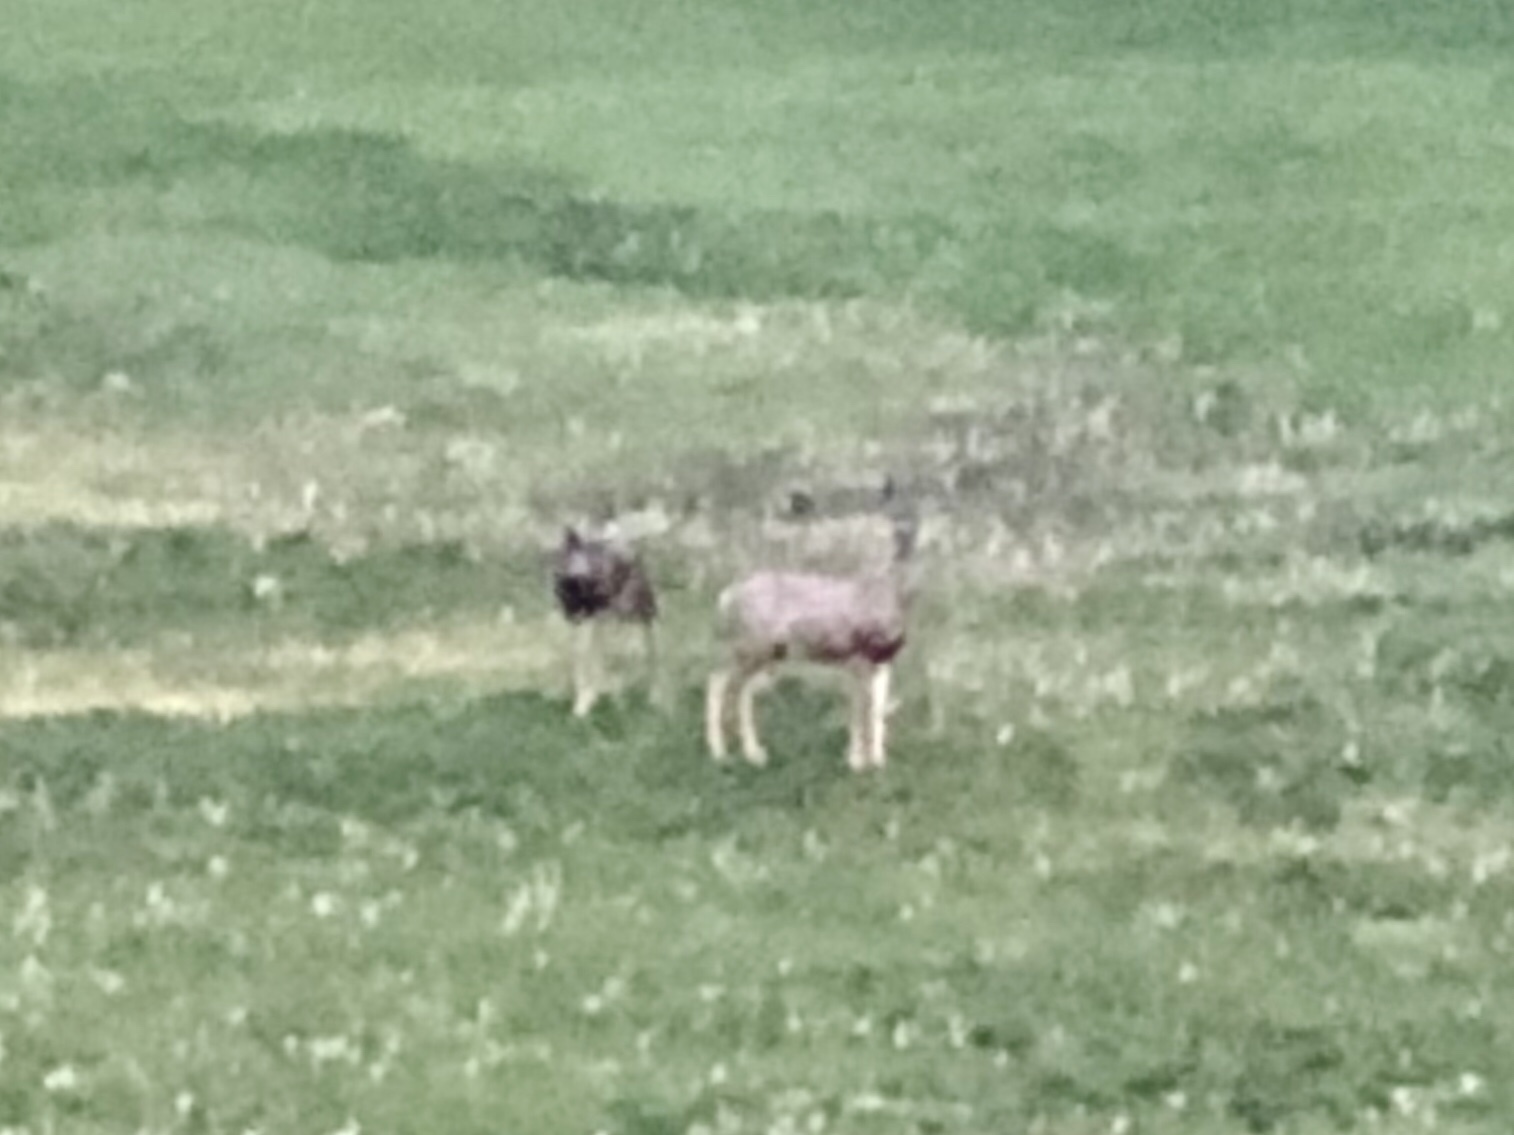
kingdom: Animalia
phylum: Chordata
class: Mammalia
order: Artiodactyla
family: Cervidae
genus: Odocoileus
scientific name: Odocoileus hemionus
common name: Mule deer
